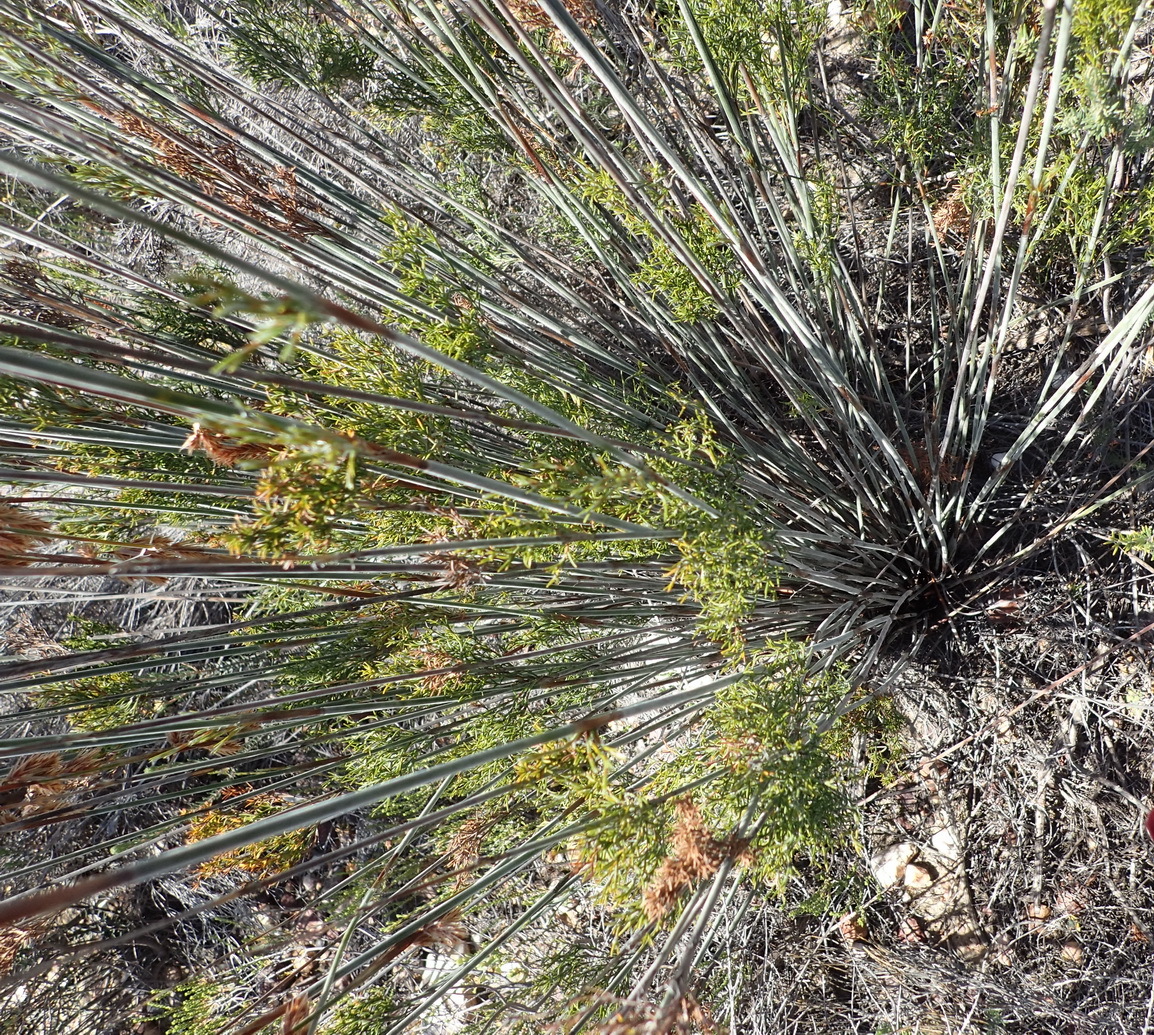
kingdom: Plantae
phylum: Tracheophyta
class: Liliopsida
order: Poales
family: Restionaceae
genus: Thamnochortus
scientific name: Thamnochortus rigidus
